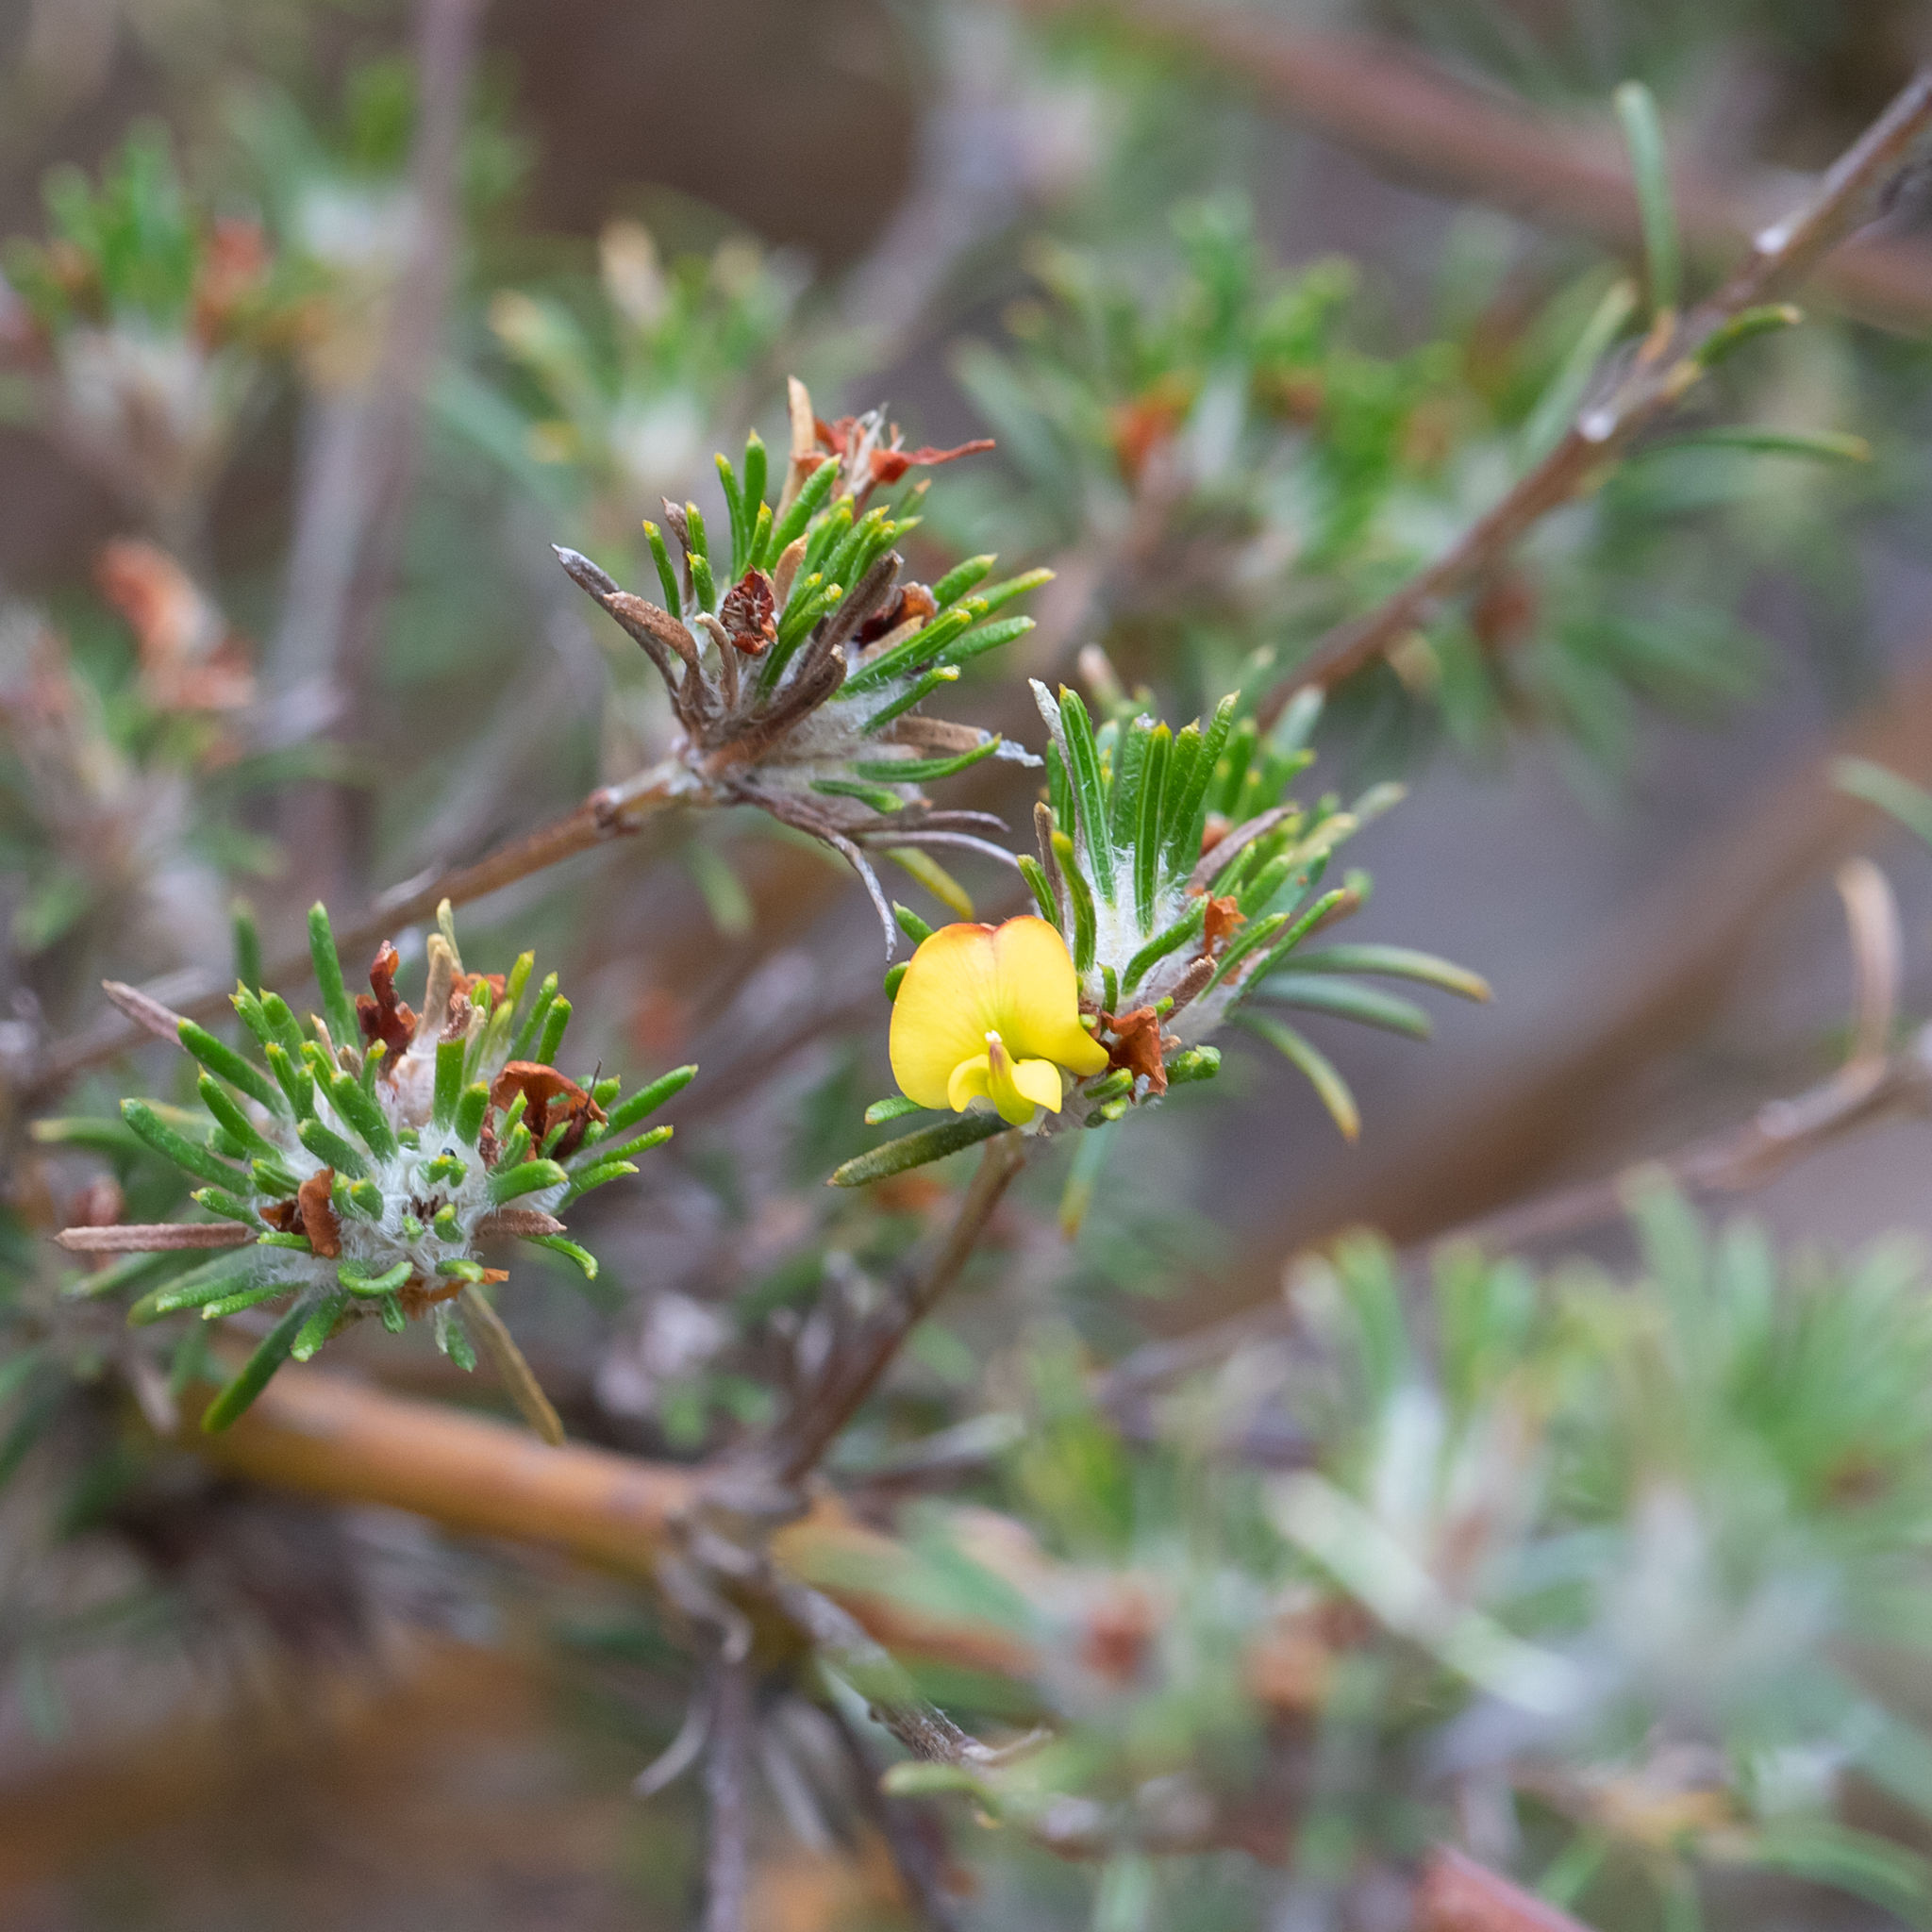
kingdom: Plantae
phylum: Tracheophyta
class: Magnoliopsida
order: Fabales
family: Fabaceae
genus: Phyllota
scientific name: Phyllota pleurandroides
